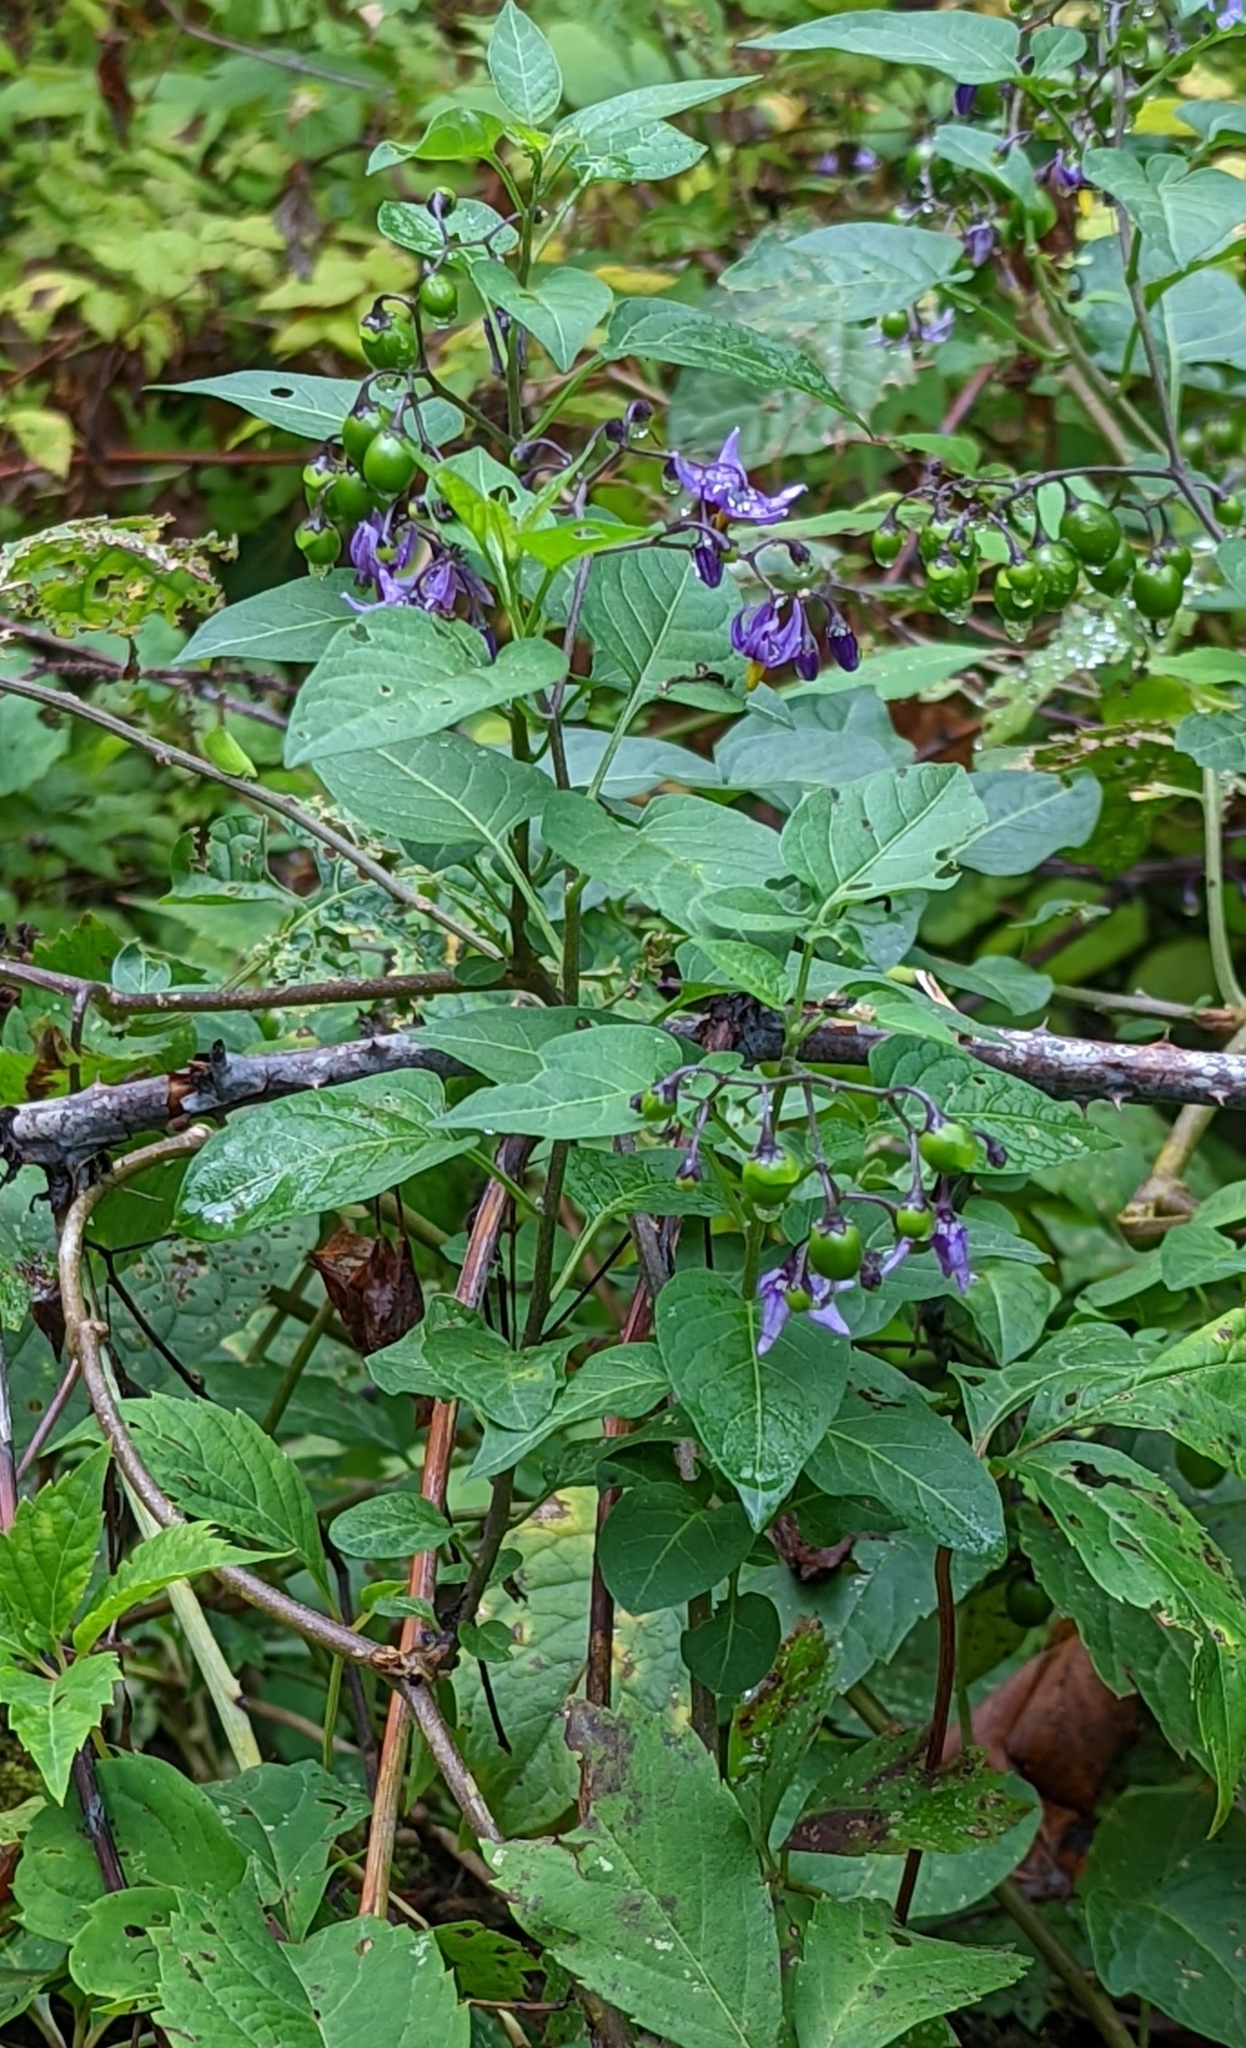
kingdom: Plantae
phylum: Tracheophyta
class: Magnoliopsida
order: Solanales
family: Solanaceae
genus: Solanum
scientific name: Solanum dulcamara
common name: Climbing nightshade
